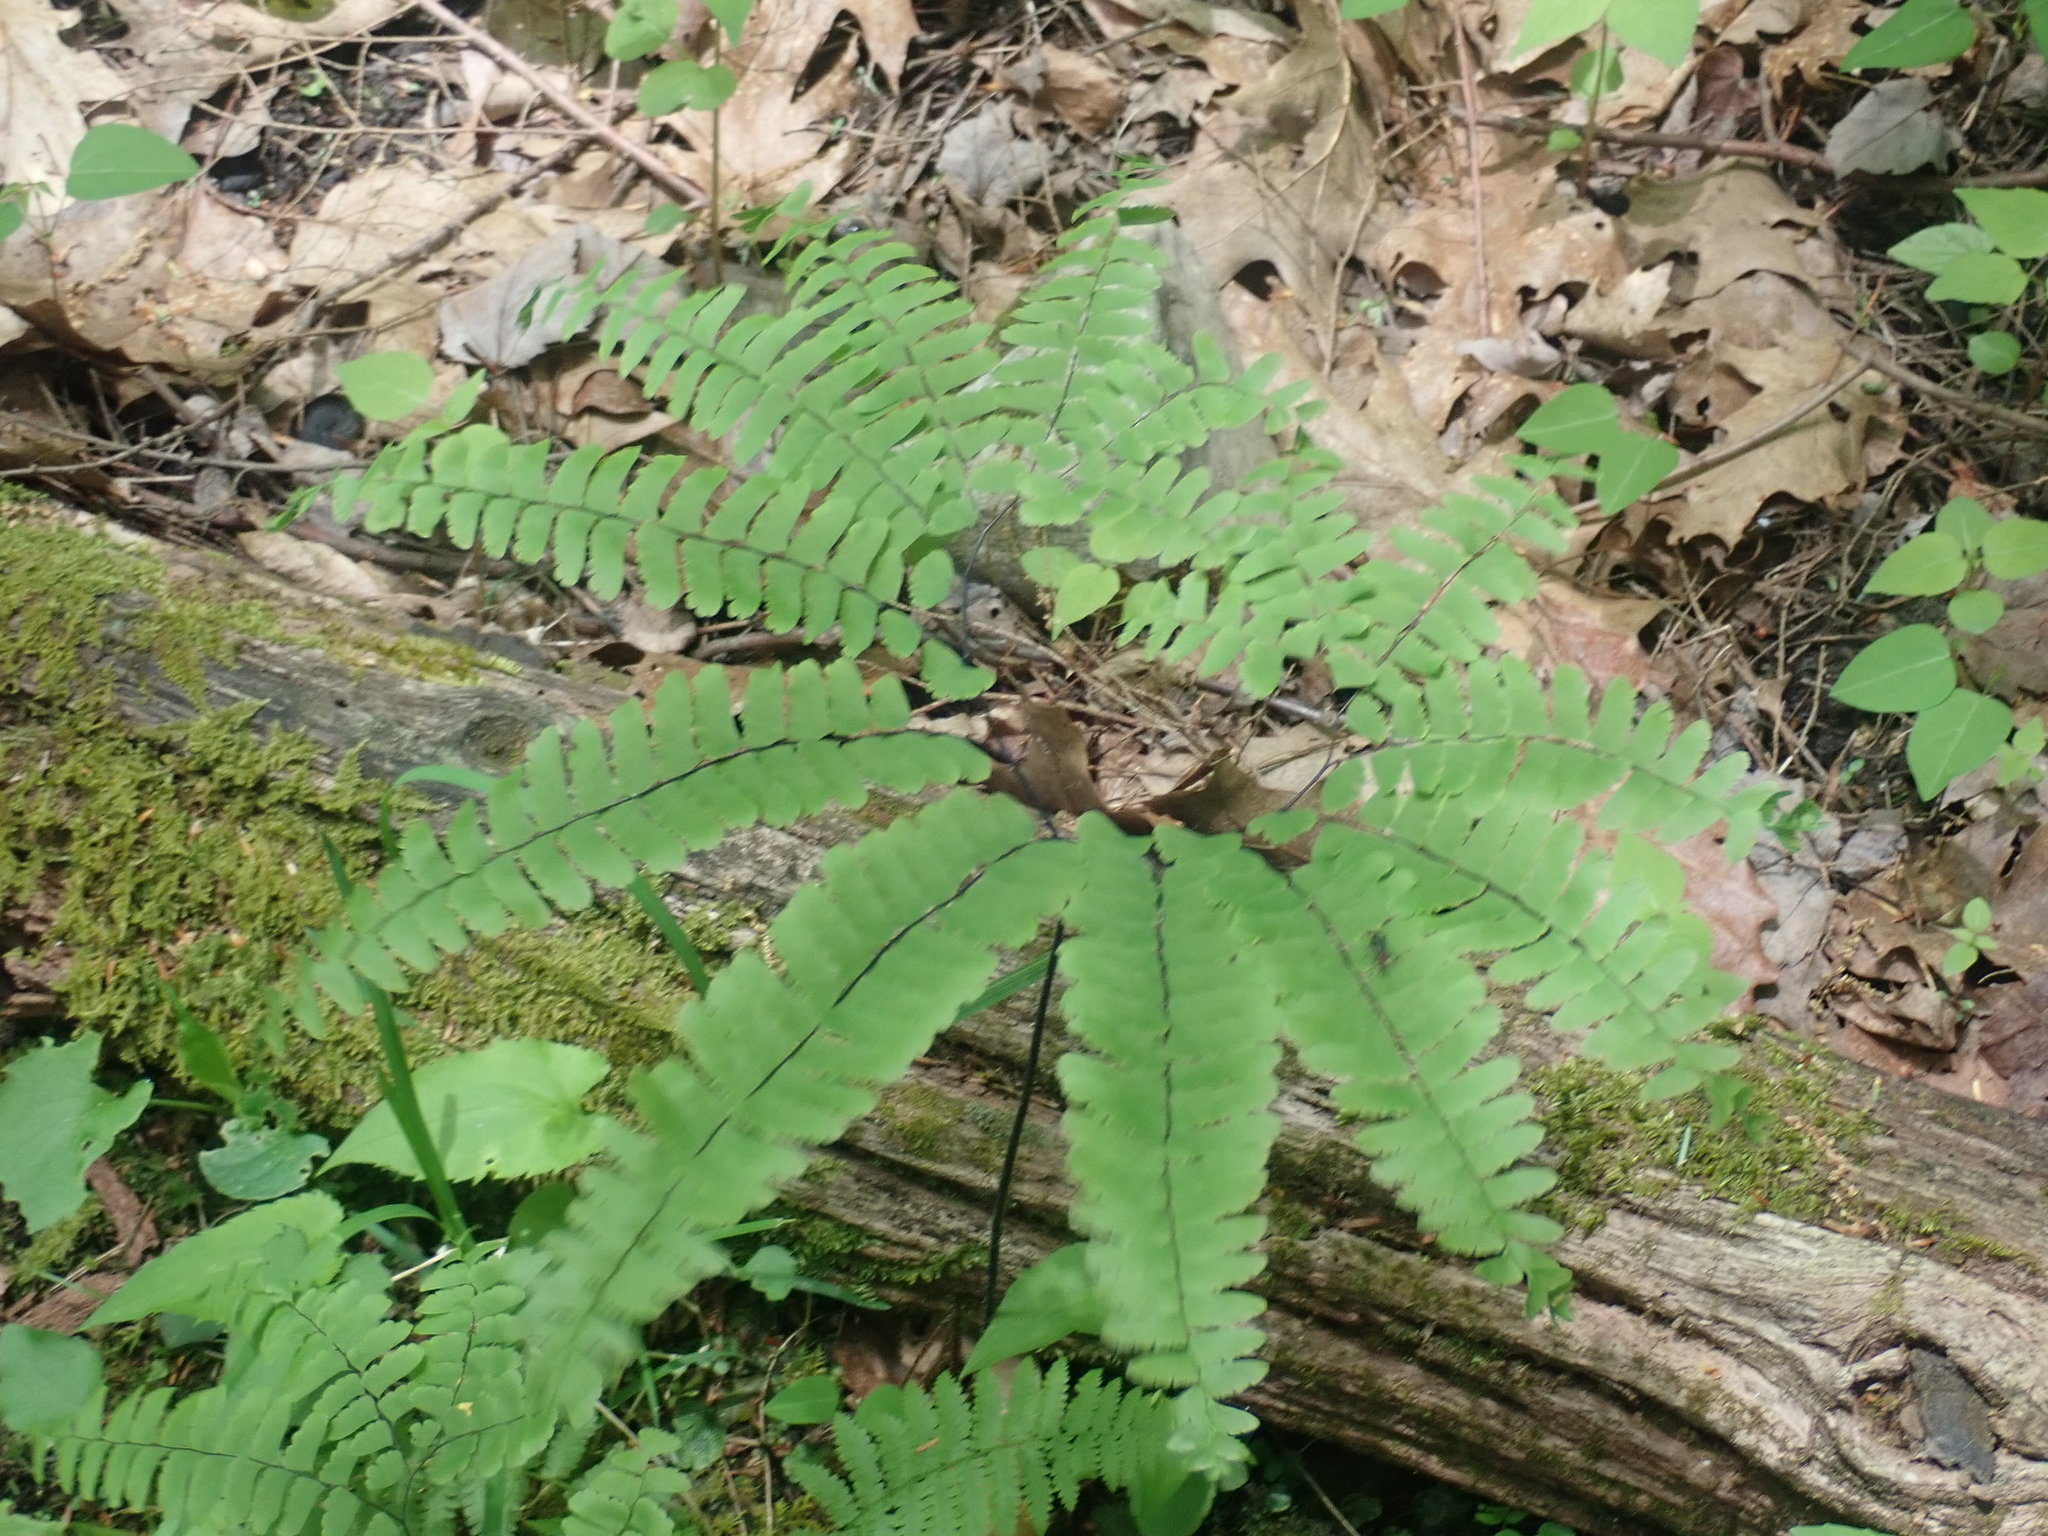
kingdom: Plantae
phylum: Tracheophyta
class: Polypodiopsida
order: Polypodiales
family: Pteridaceae
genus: Adiantum
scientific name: Adiantum pedatum
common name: Five-finger fern
